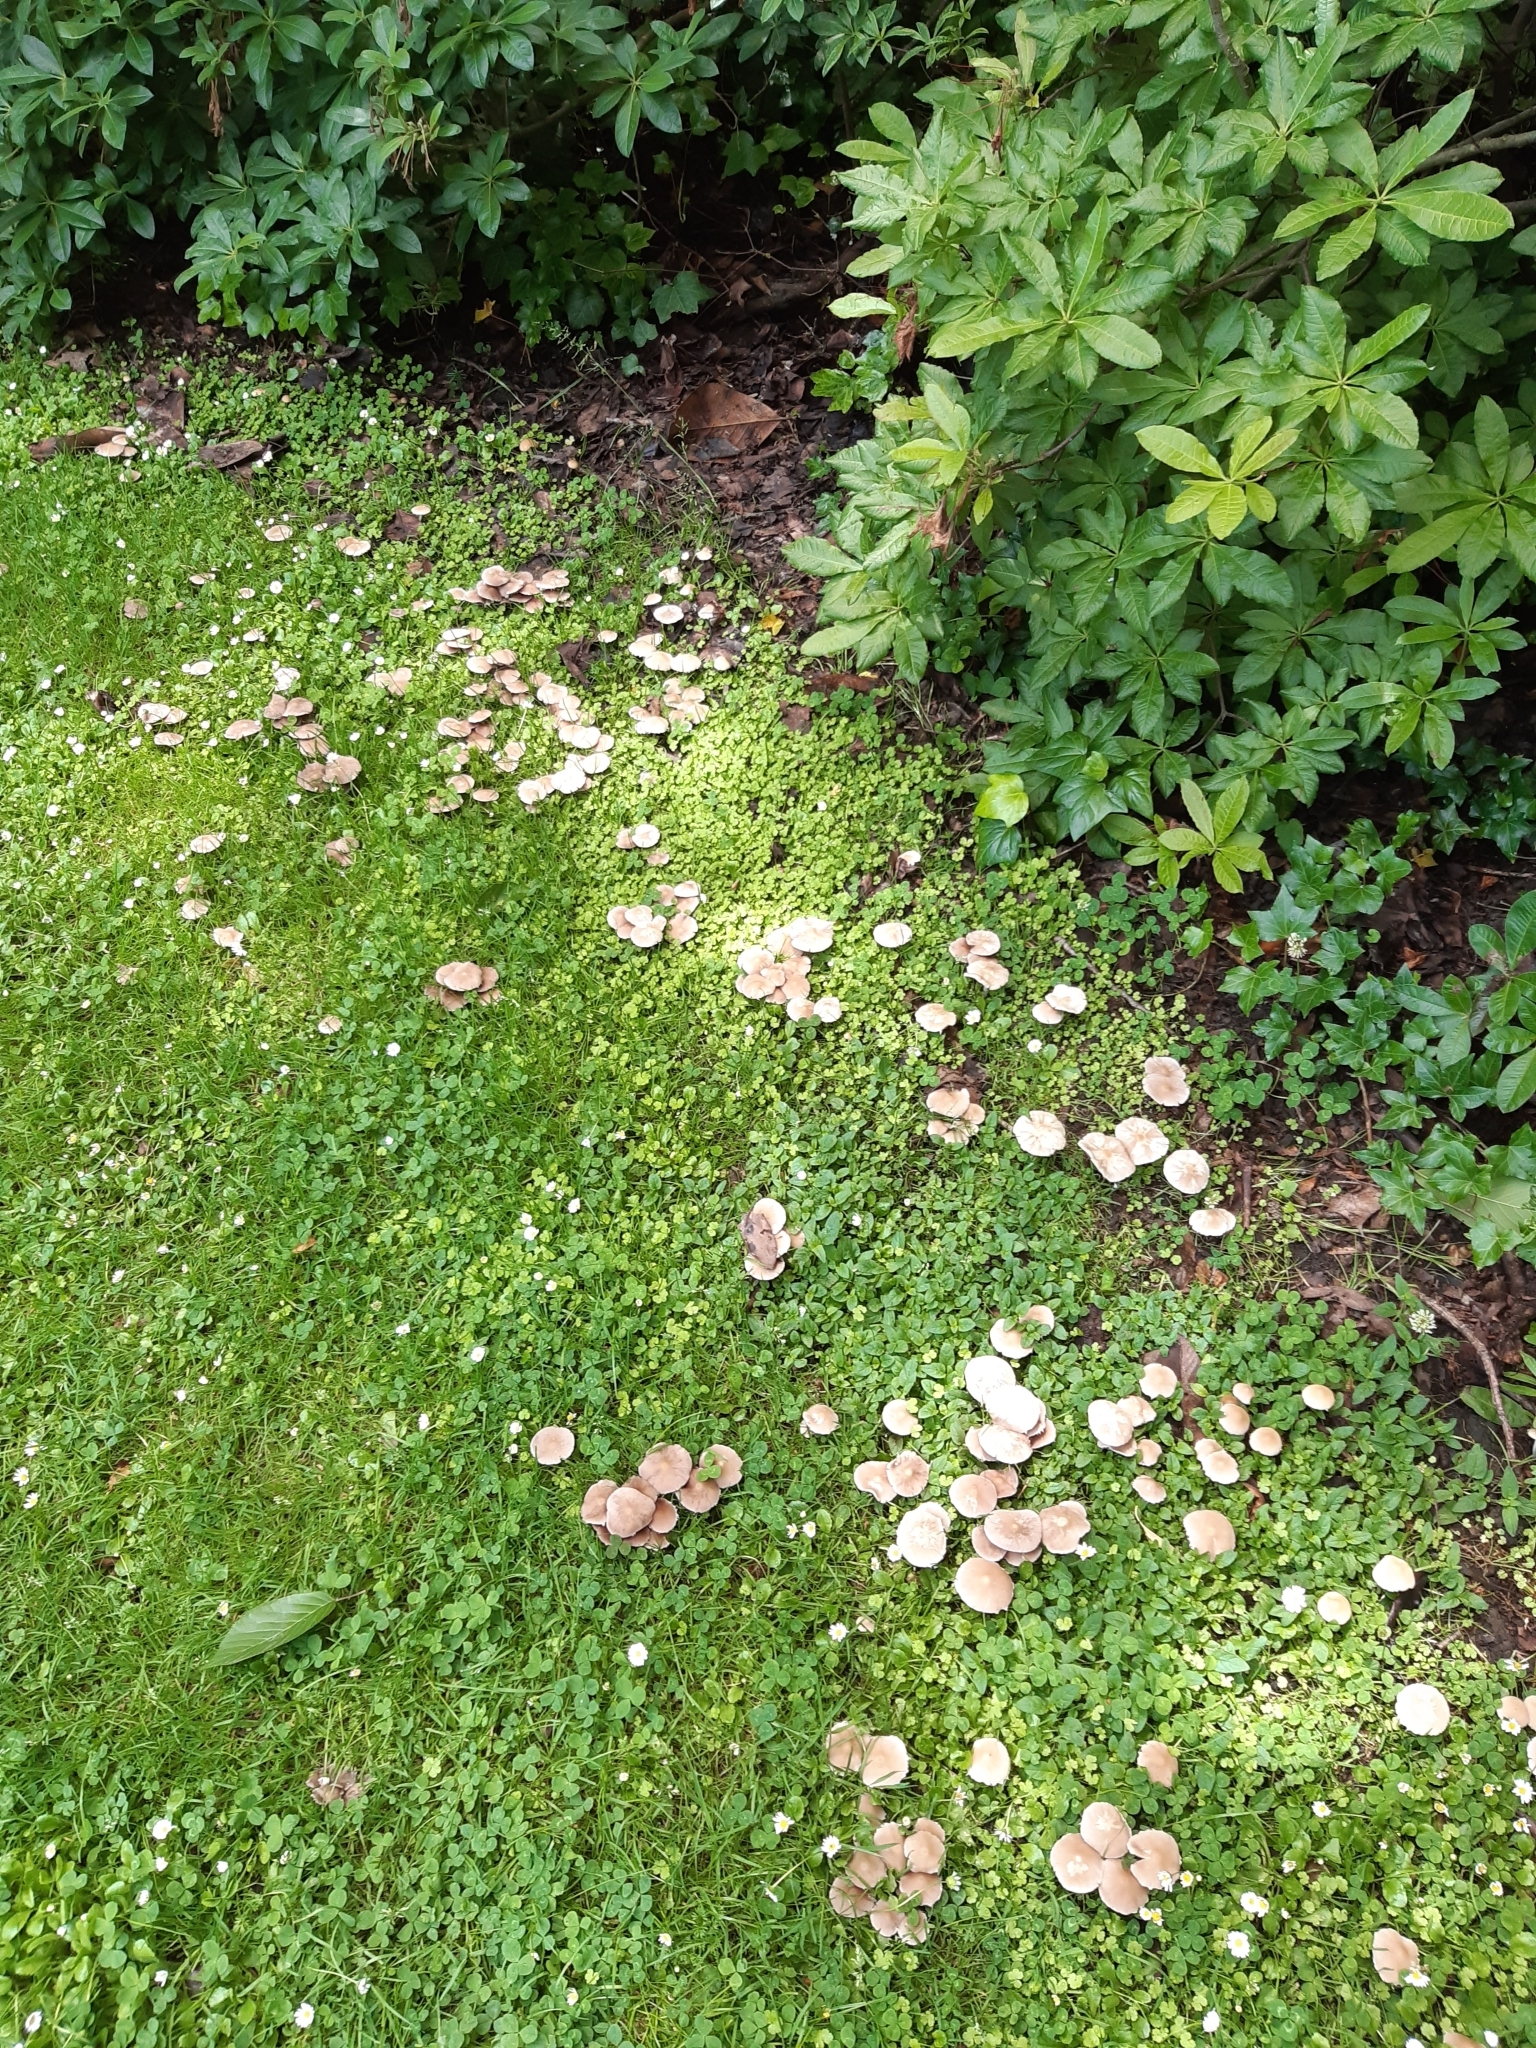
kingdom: Fungi
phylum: Basidiomycota
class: Agaricomycetes
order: Agaricales
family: Psathyrellaceae
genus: Candolleomyces
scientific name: Candolleomyces candolleanus
